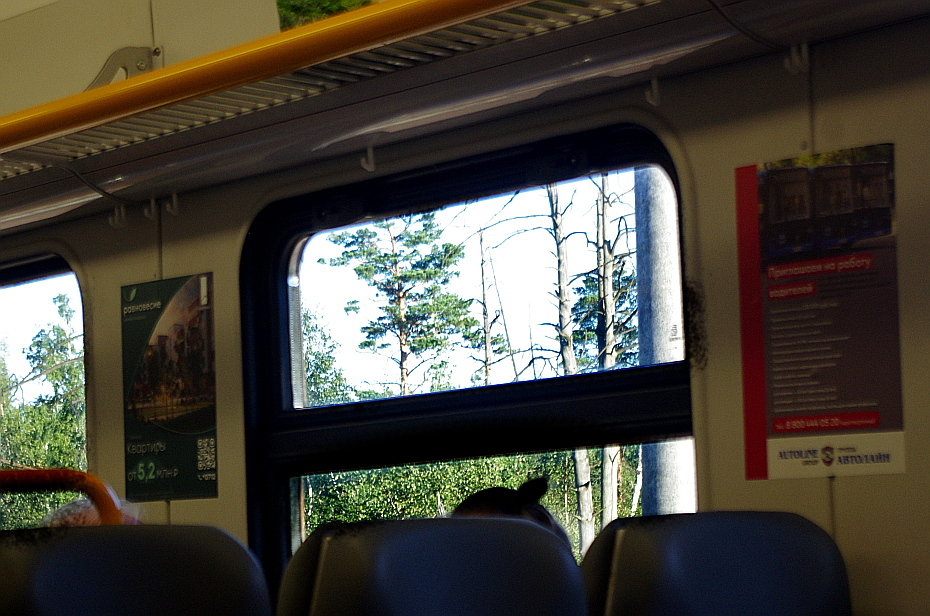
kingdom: Plantae
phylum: Tracheophyta
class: Pinopsida
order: Pinales
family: Pinaceae
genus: Pinus
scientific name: Pinus sylvestris
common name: Scots pine
